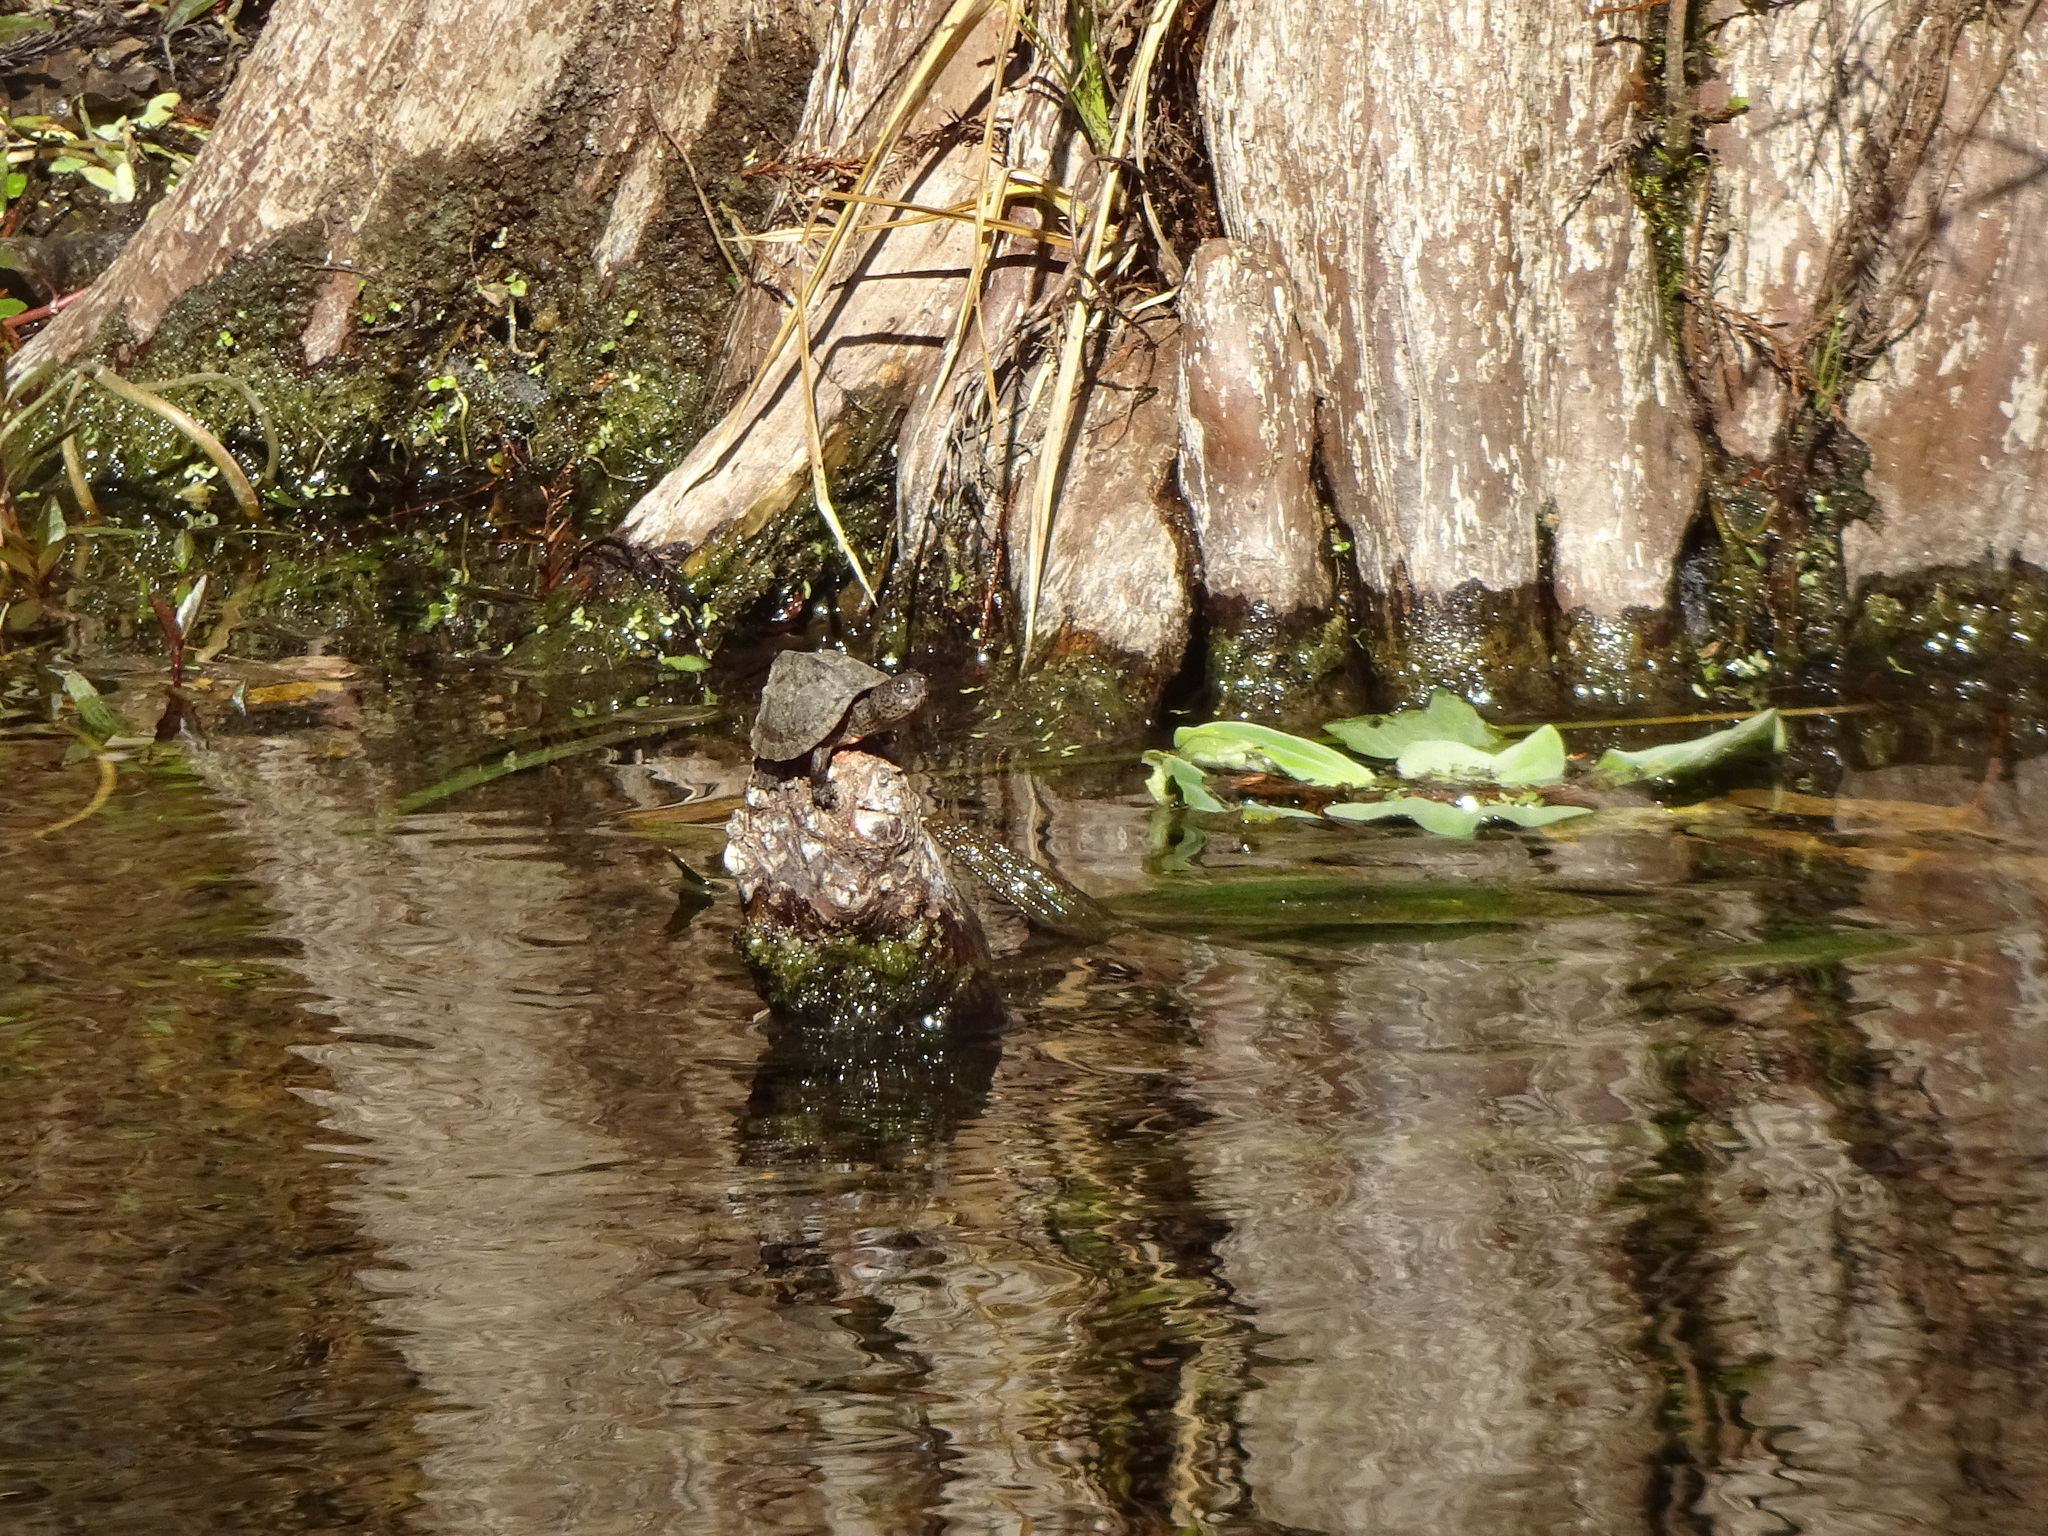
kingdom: Animalia
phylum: Chordata
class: Testudines
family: Kinosternidae
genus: Sternotherus
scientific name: Sternotherus minor
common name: Loggerhead musk turtle
